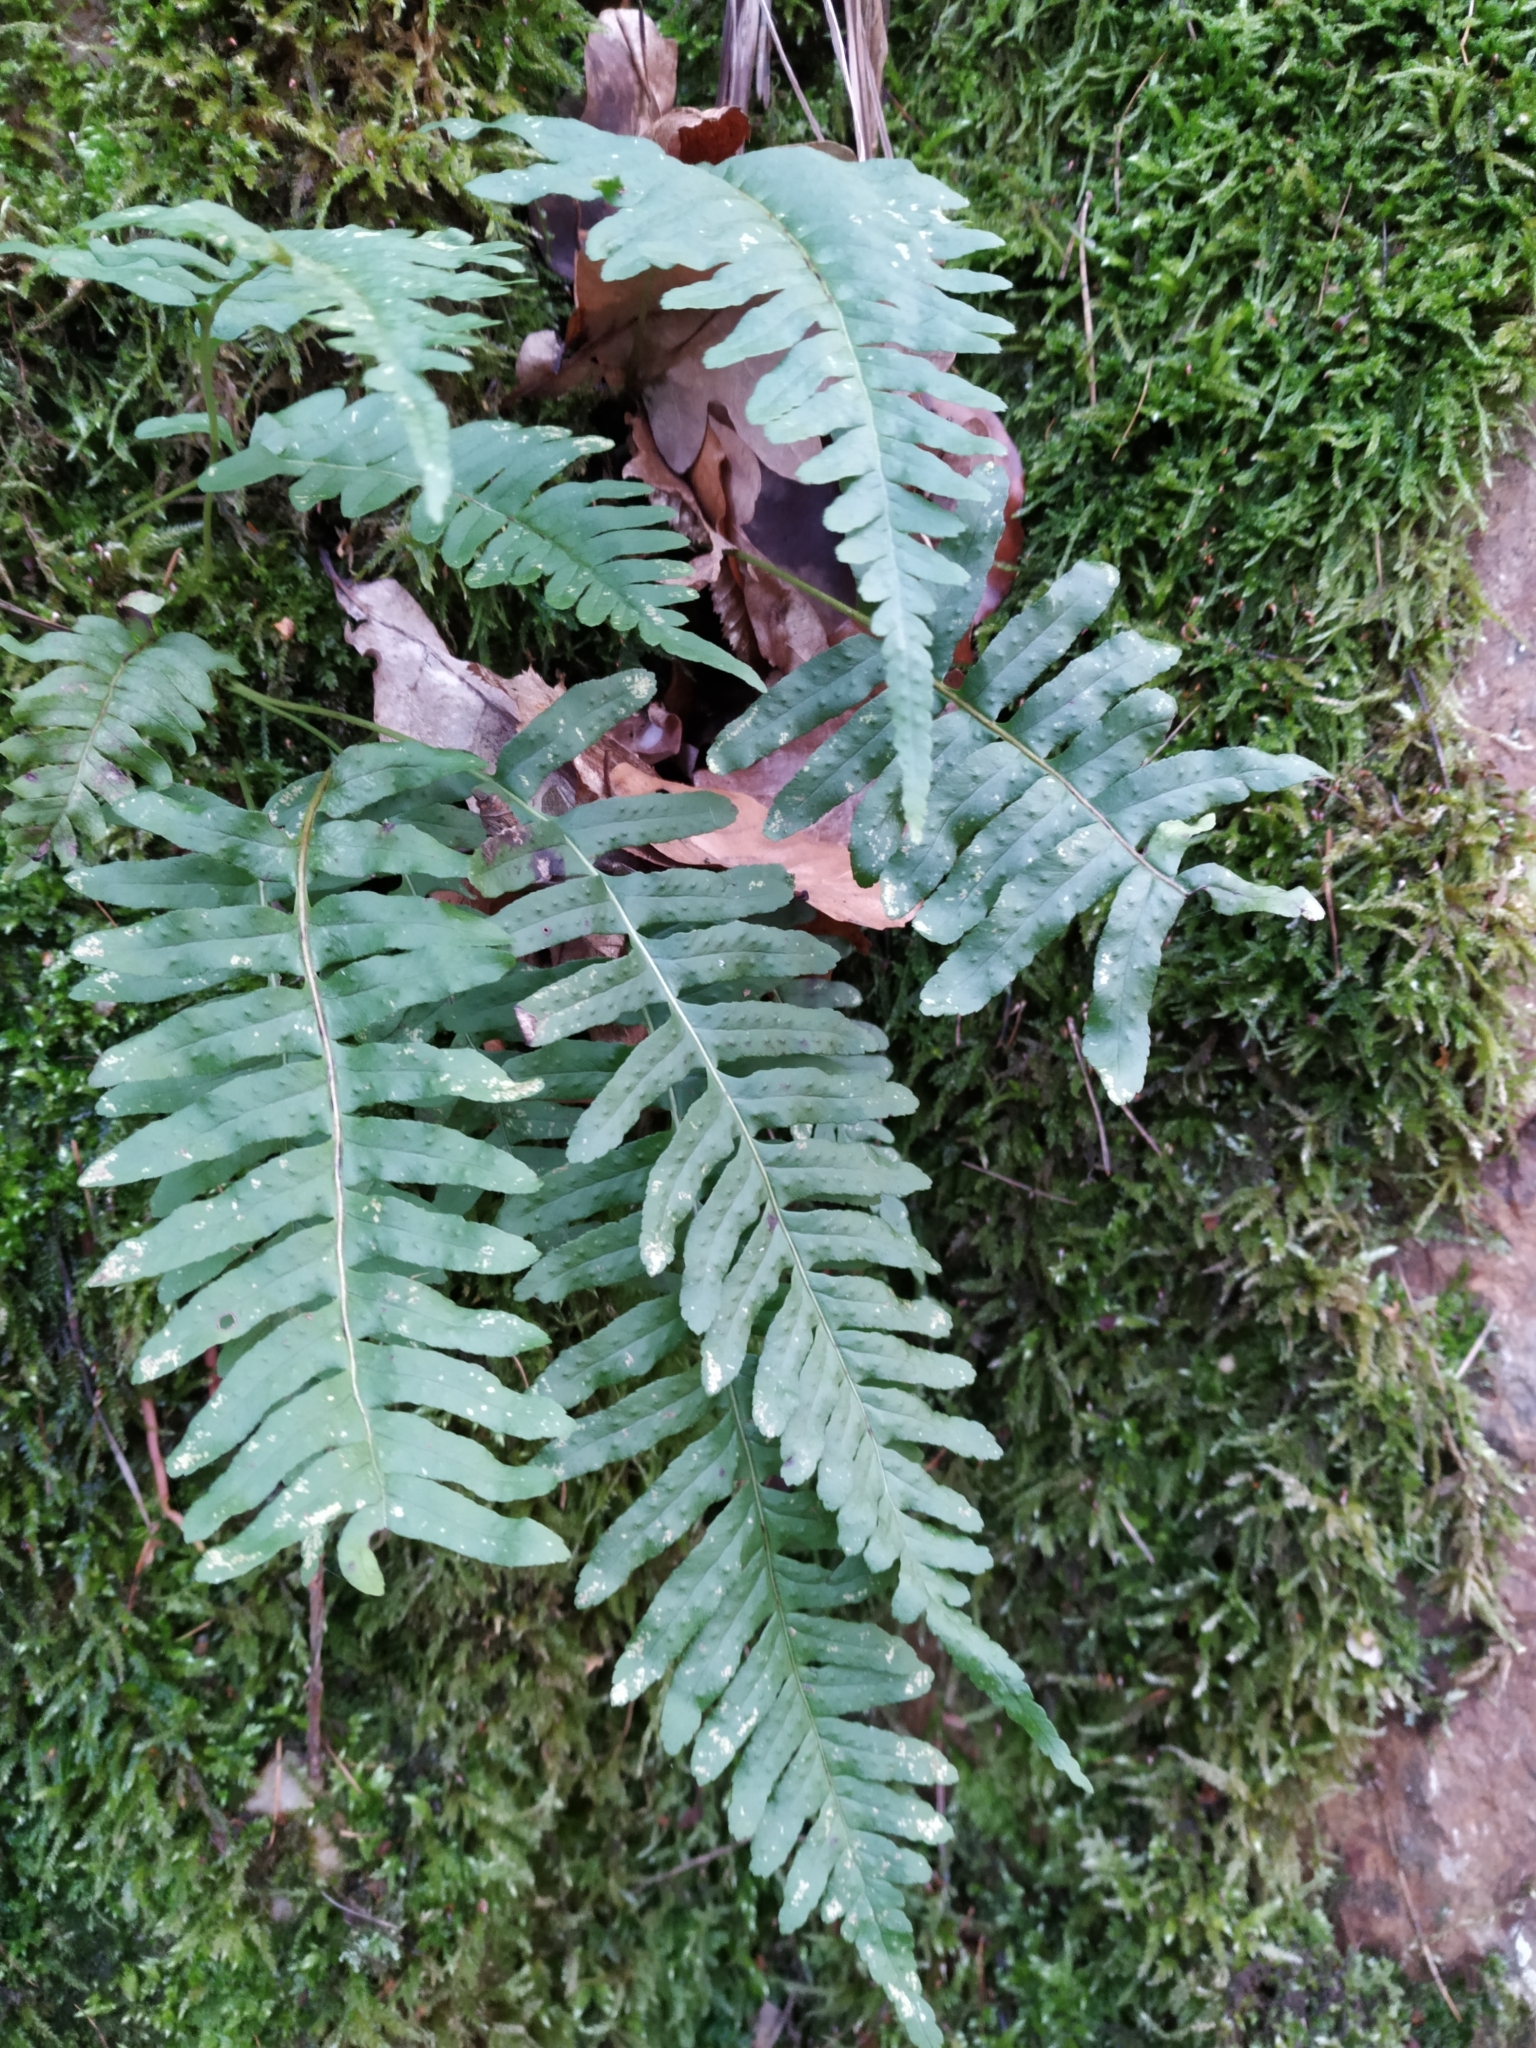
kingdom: Plantae
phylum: Tracheophyta
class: Polypodiopsida
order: Polypodiales
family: Polypodiaceae
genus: Polypodium
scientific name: Polypodium vulgare
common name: Common polypody
